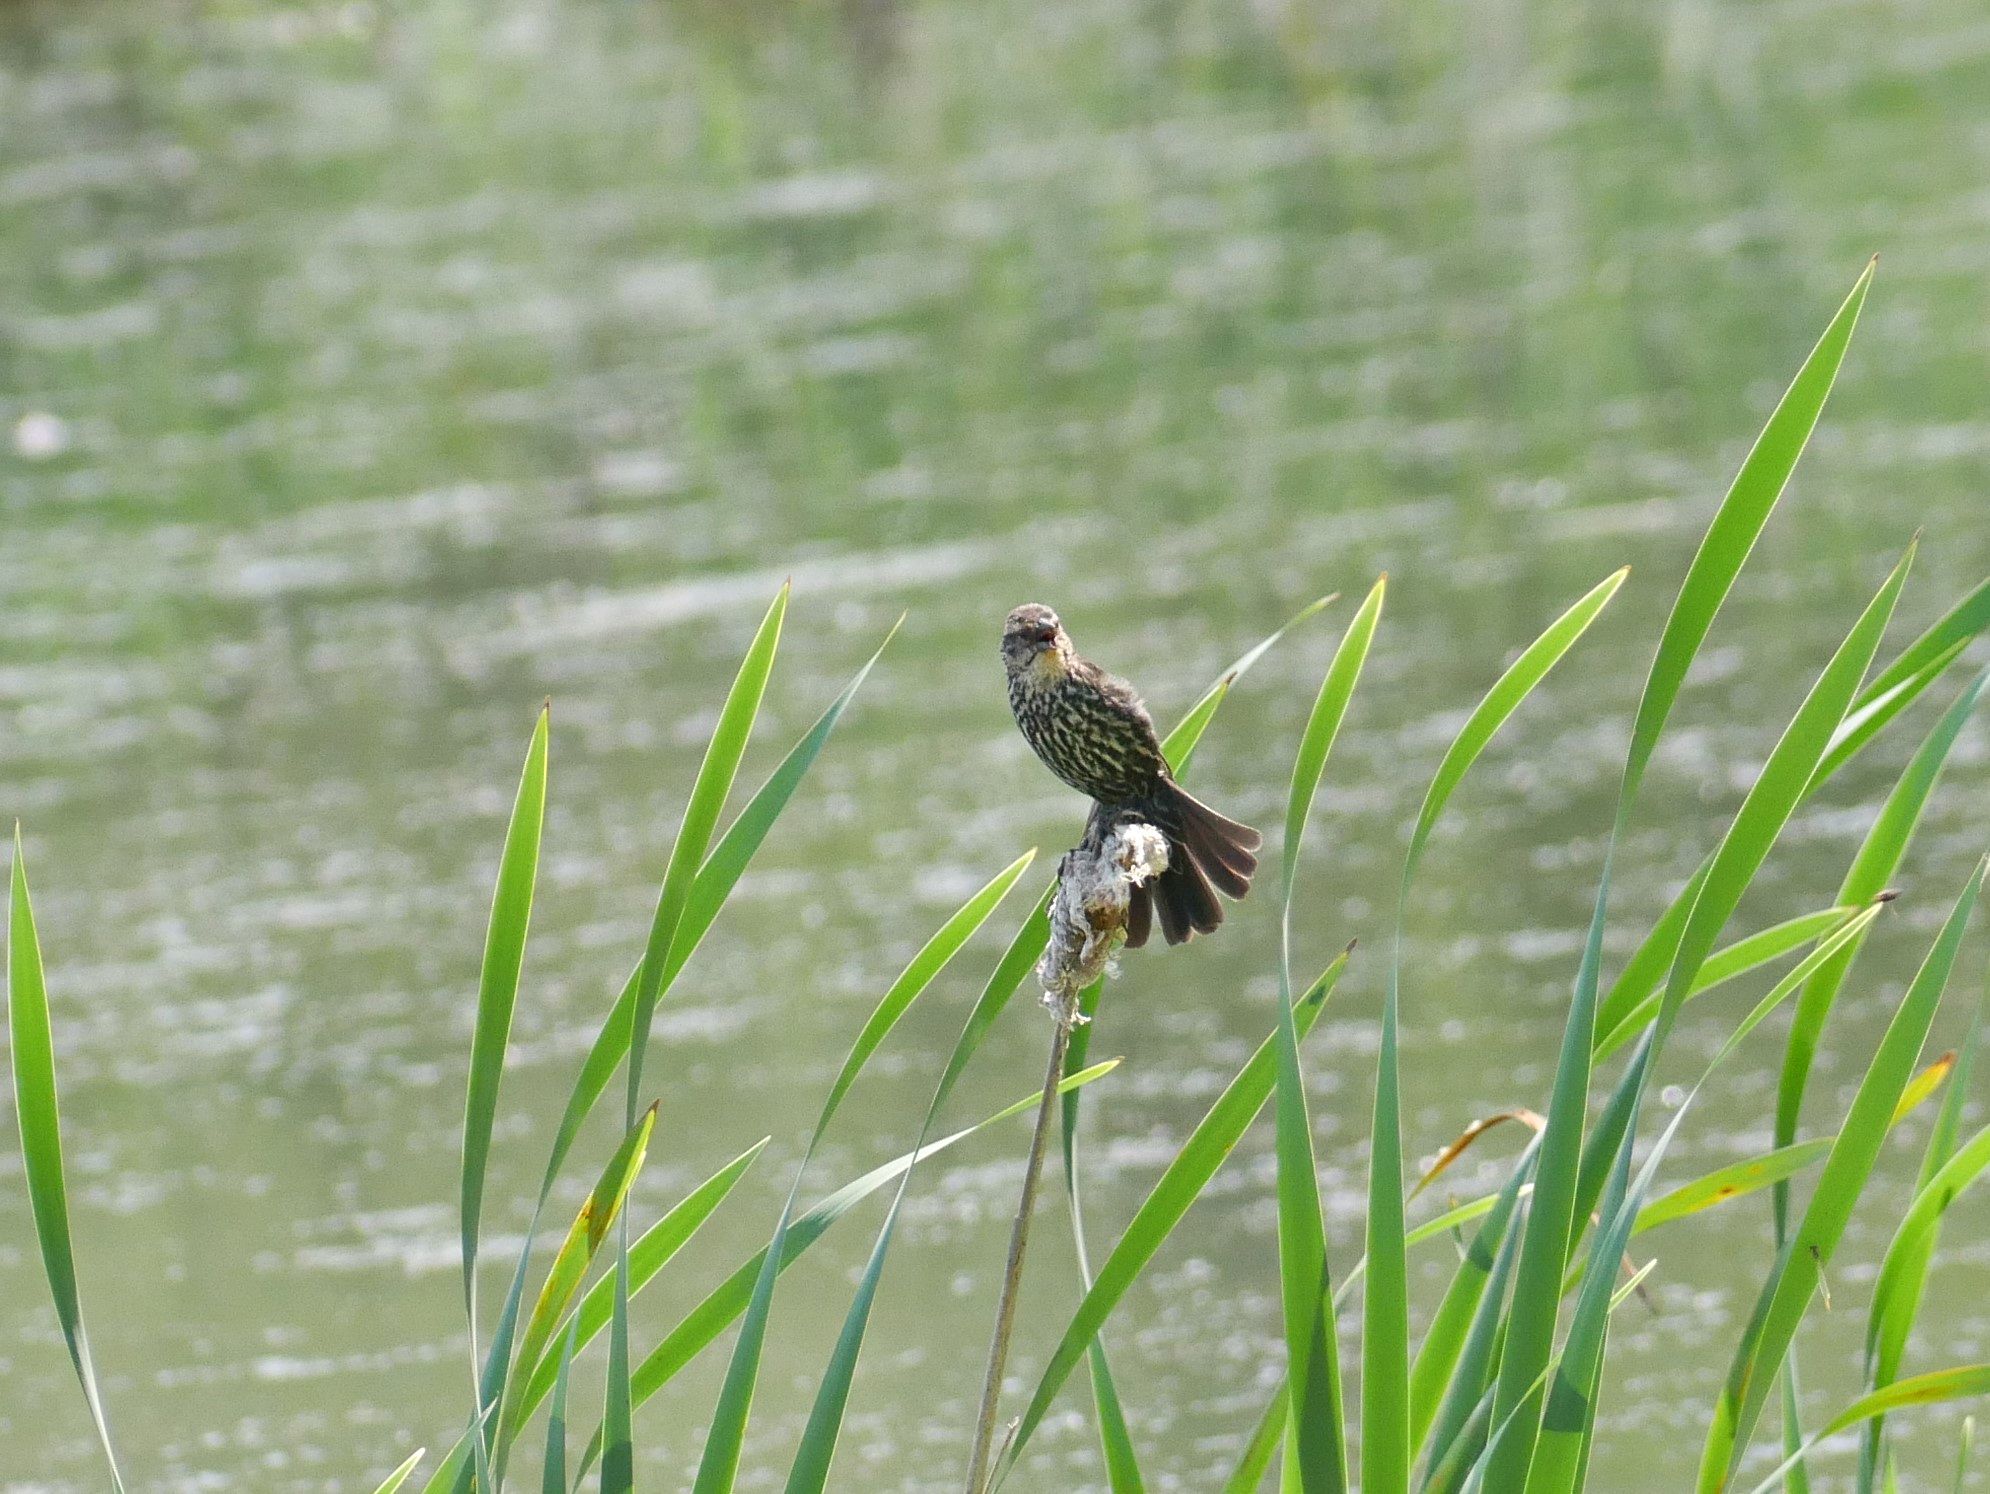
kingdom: Animalia
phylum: Chordata
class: Aves
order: Passeriformes
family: Icteridae
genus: Agelaius
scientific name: Agelaius phoeniceus
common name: Red-winged blackbird
